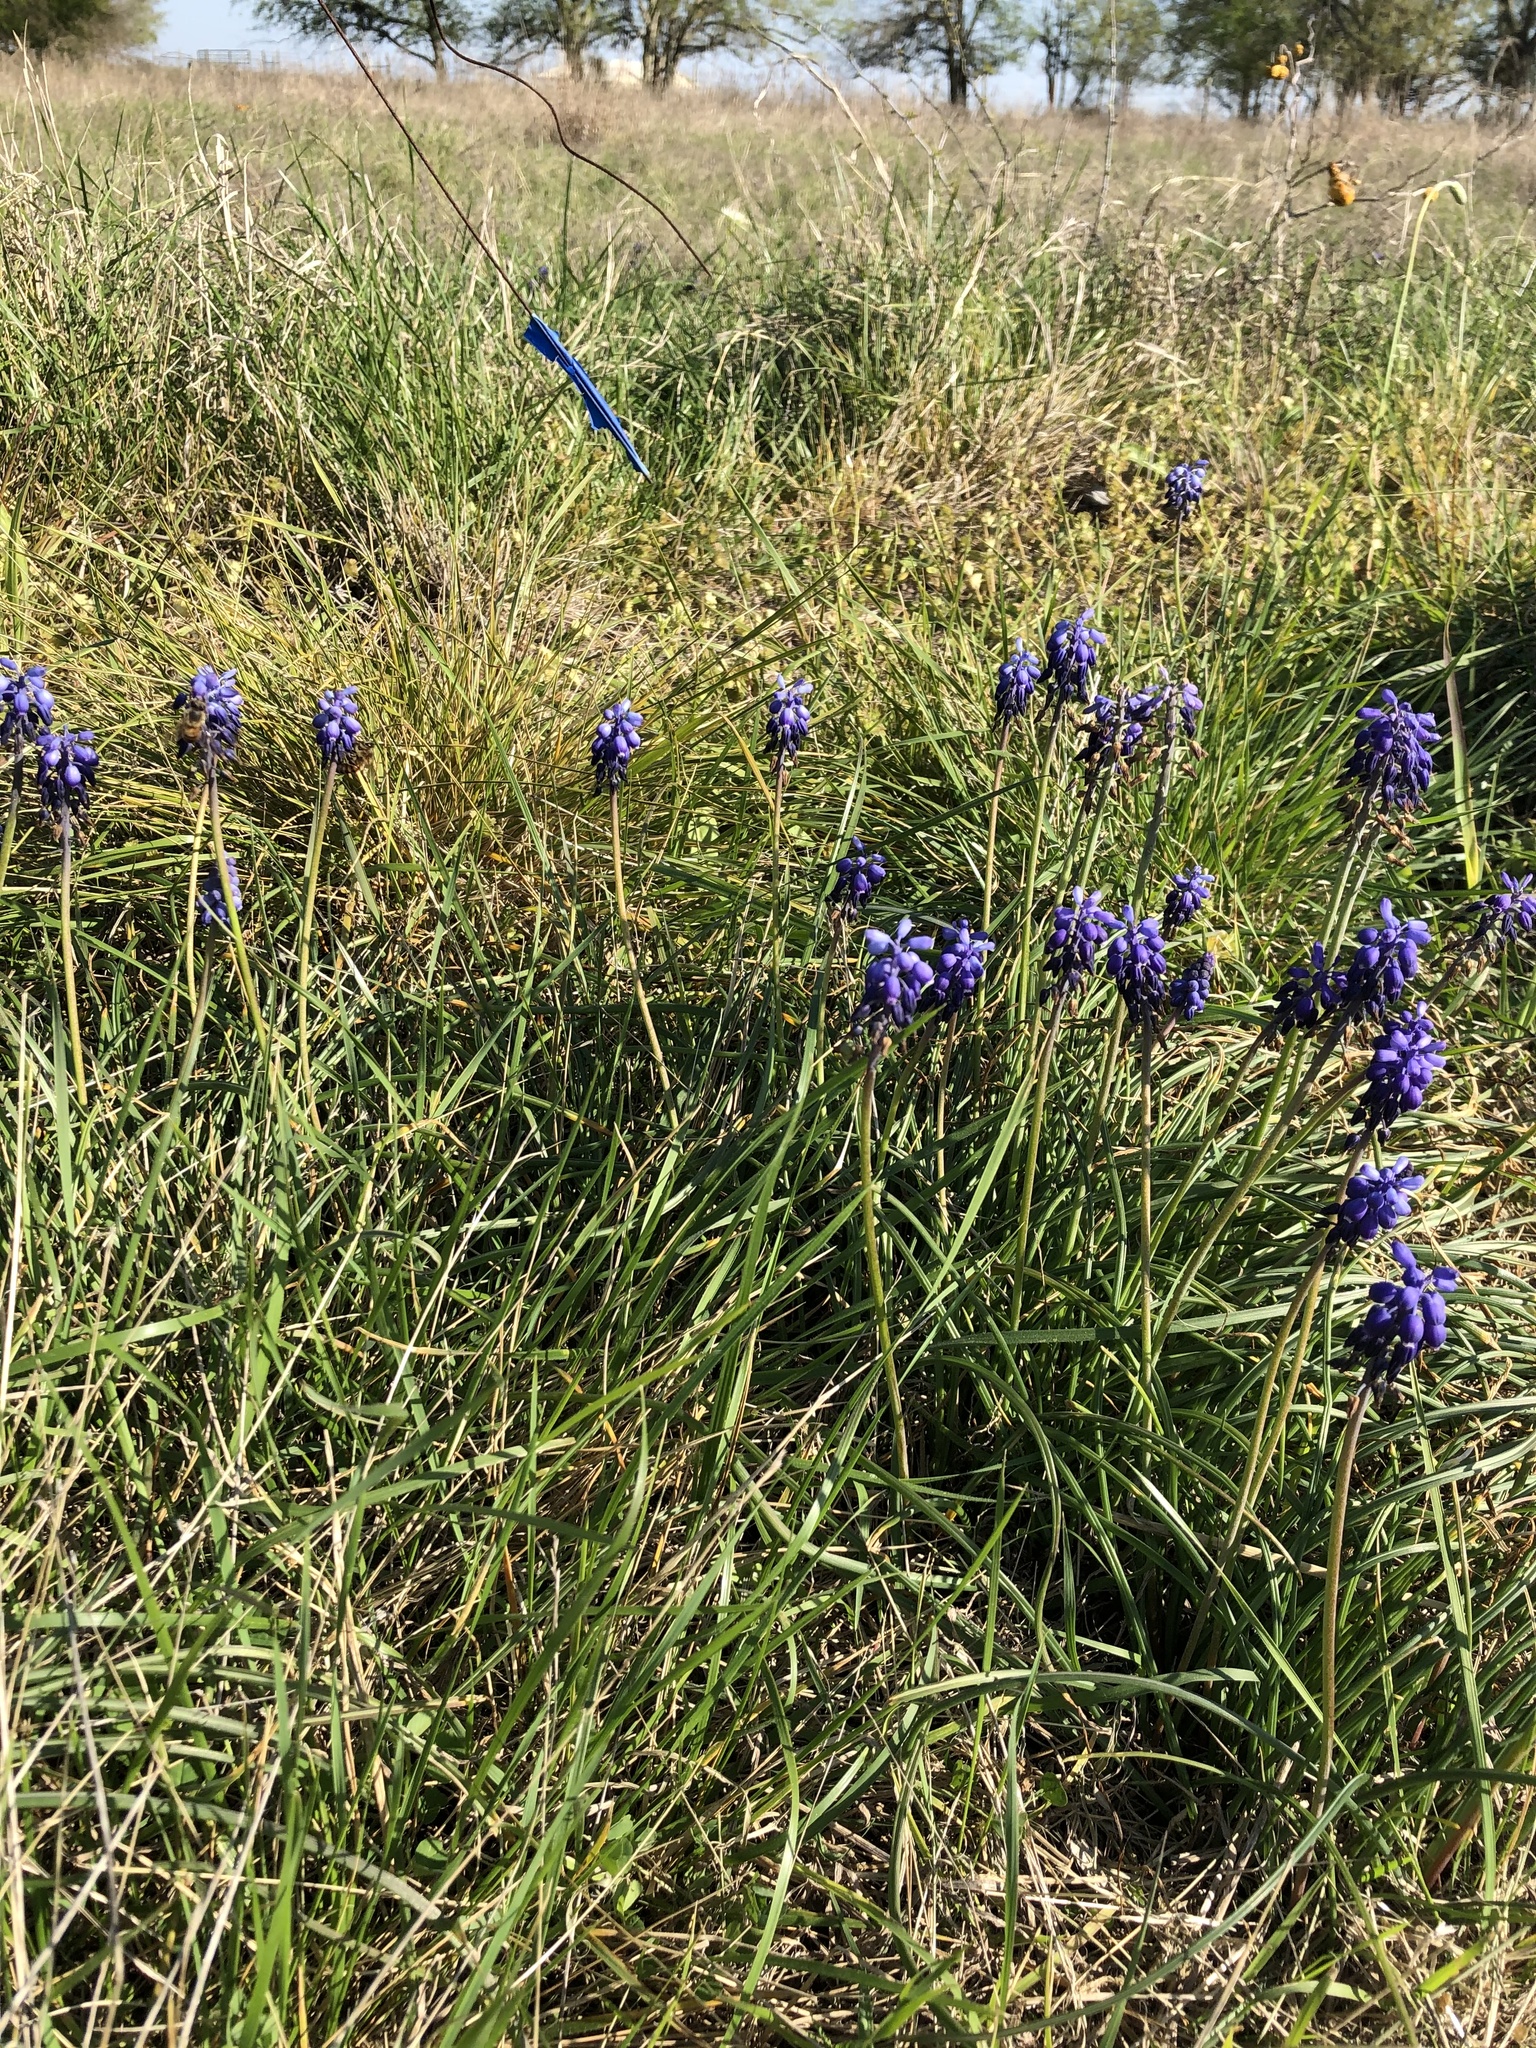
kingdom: Plantae
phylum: Tracheophyta
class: Liliopsida
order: Asparagales
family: Asparagaceae
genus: Muscari
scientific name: Muscari neglectum
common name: Grape-hyacinth
